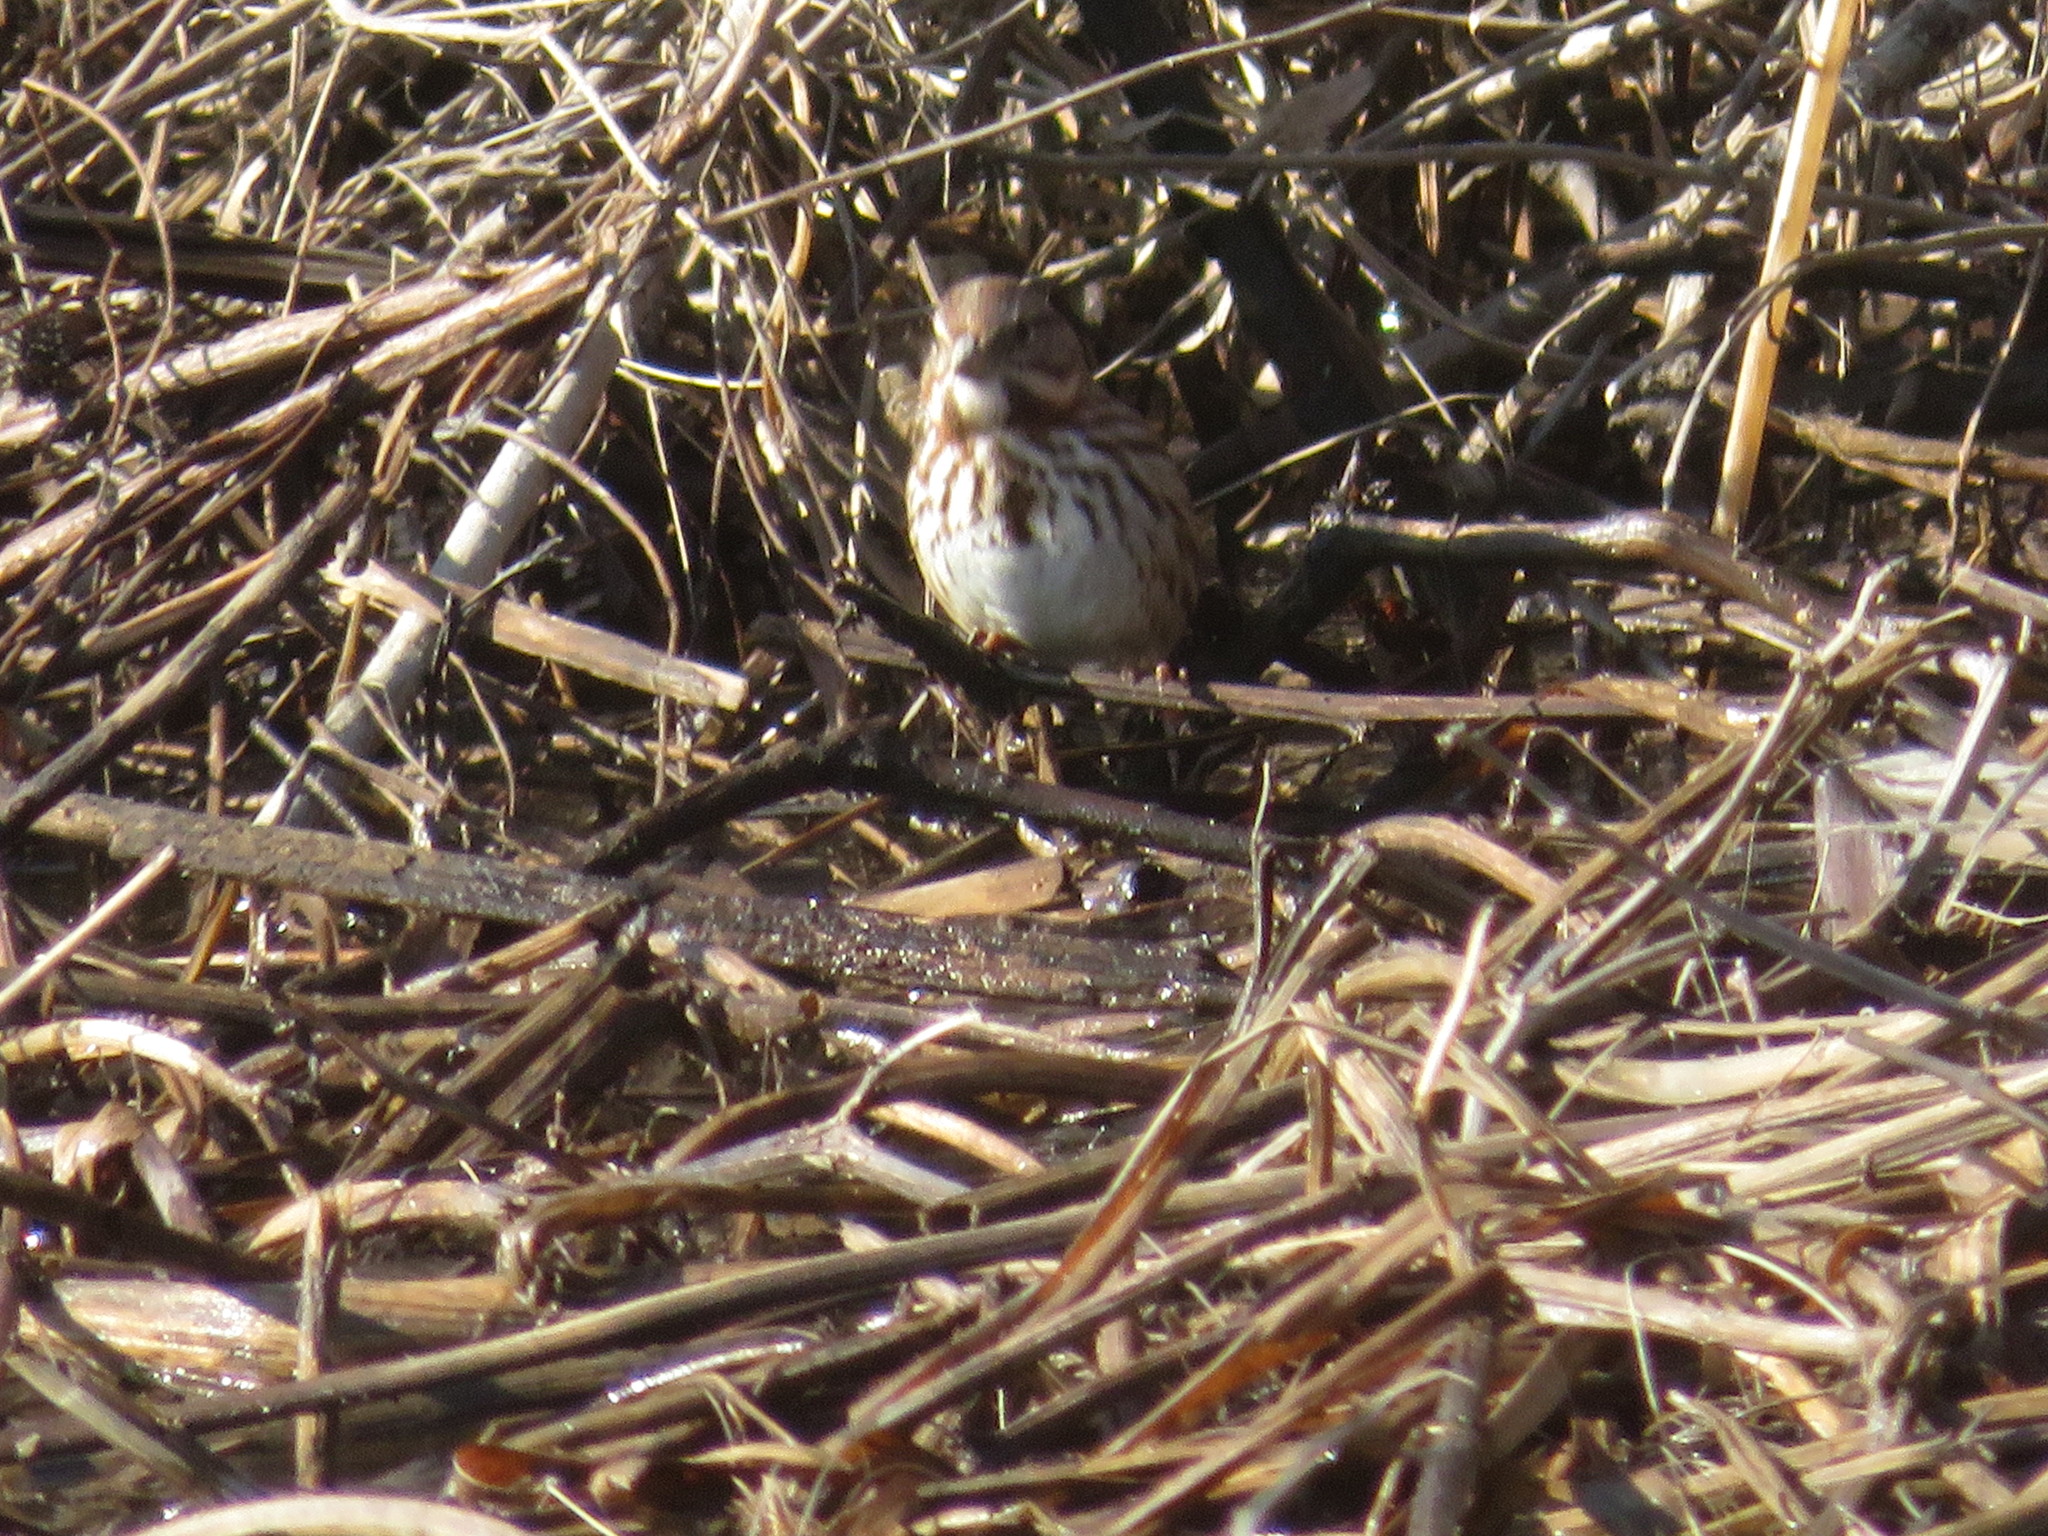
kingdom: Animalia
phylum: Chordata
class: Aves
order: Passeriformes
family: Passerellidae
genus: Melospiza
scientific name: Melospiza melodia
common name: Song sparrow
